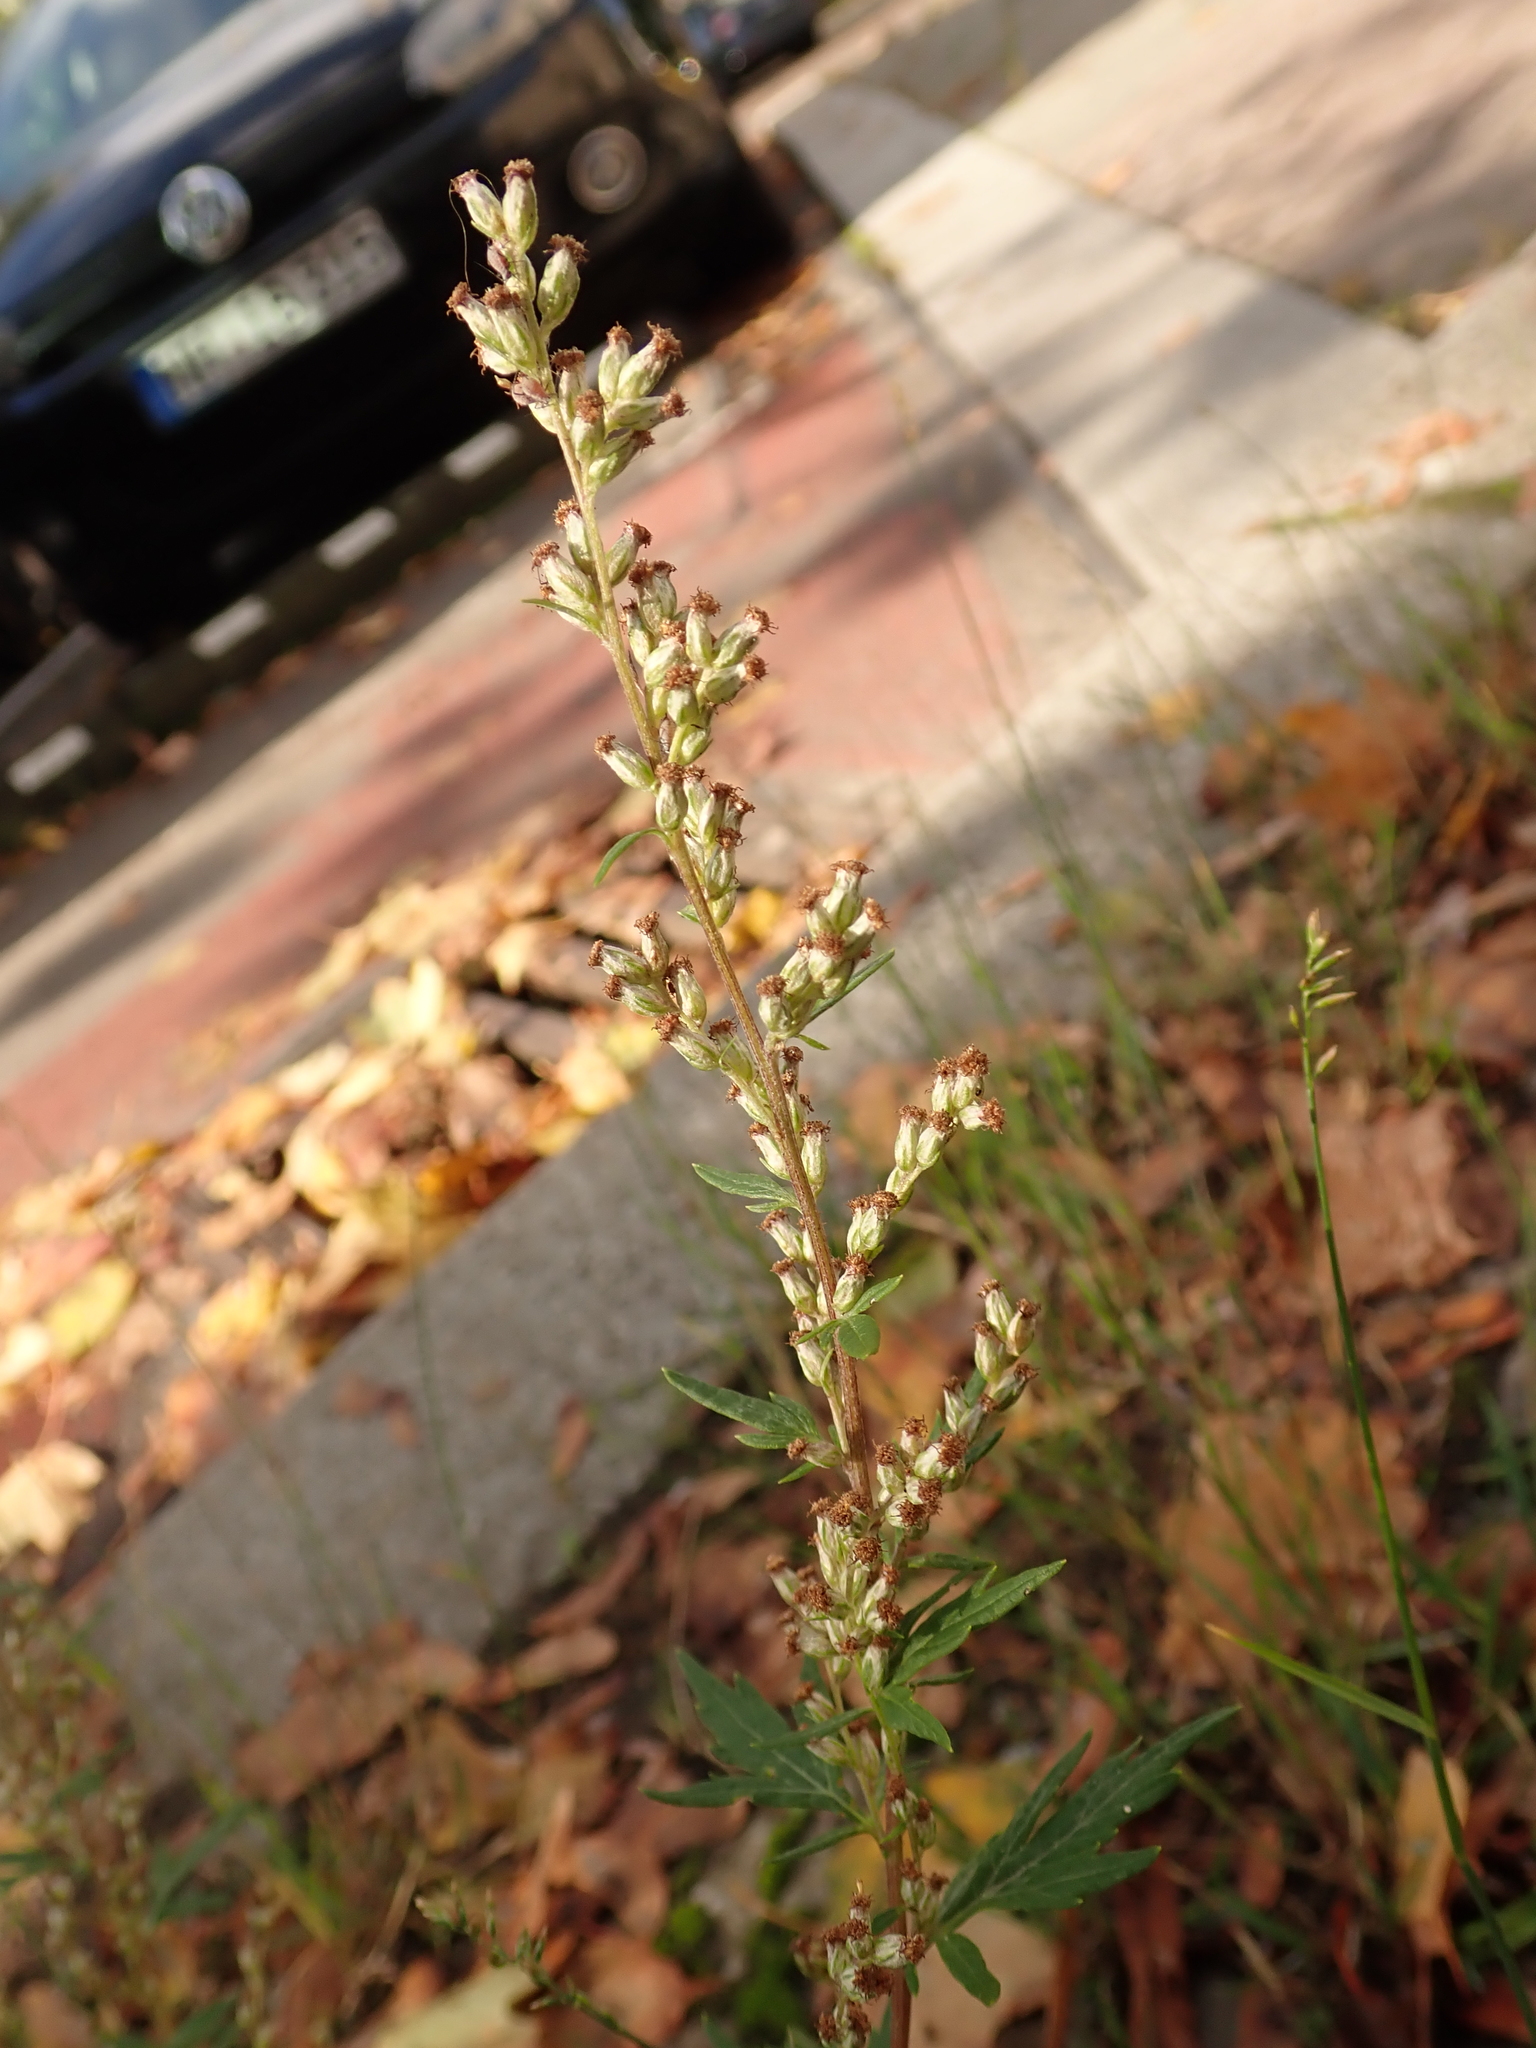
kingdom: Plantae
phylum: Tracheophyta
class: Magnoliopsida
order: Asterales
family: Asteraceae
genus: Artemisia
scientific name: Artemisia vulgaris
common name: Mugwort
